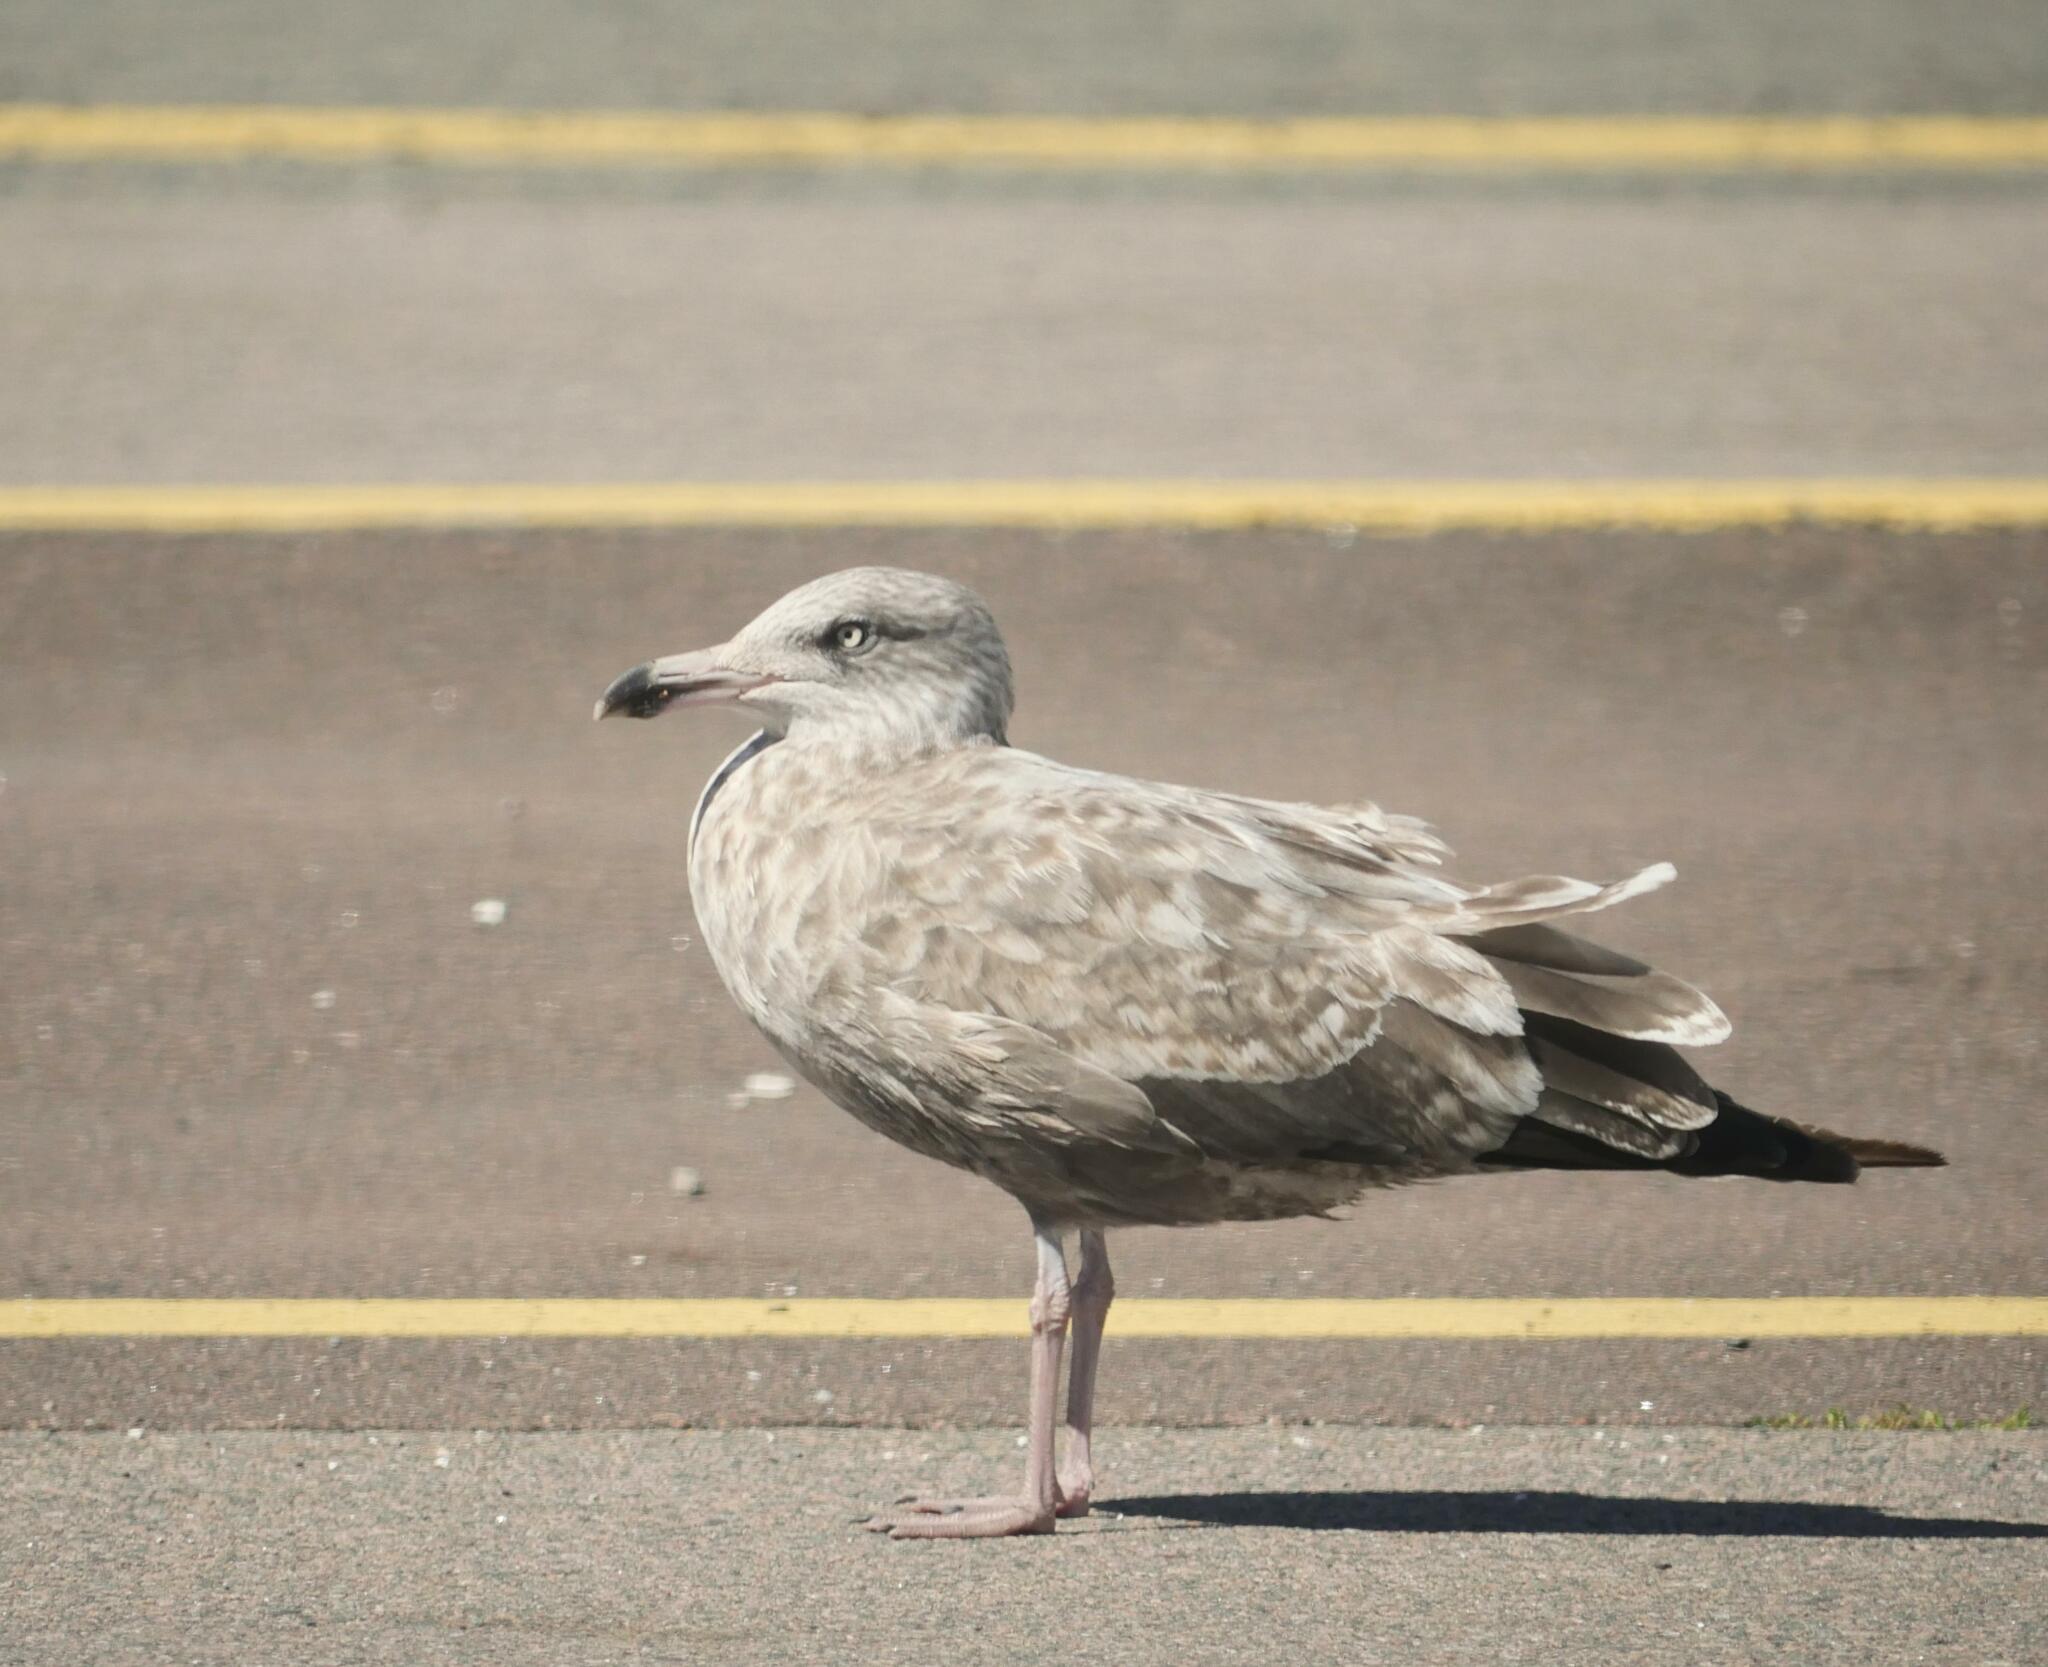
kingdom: Animalia
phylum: Chordata
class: Aves
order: Charadriiformes
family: Laridae
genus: Larus
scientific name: Larus argentatus
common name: Herring gull
